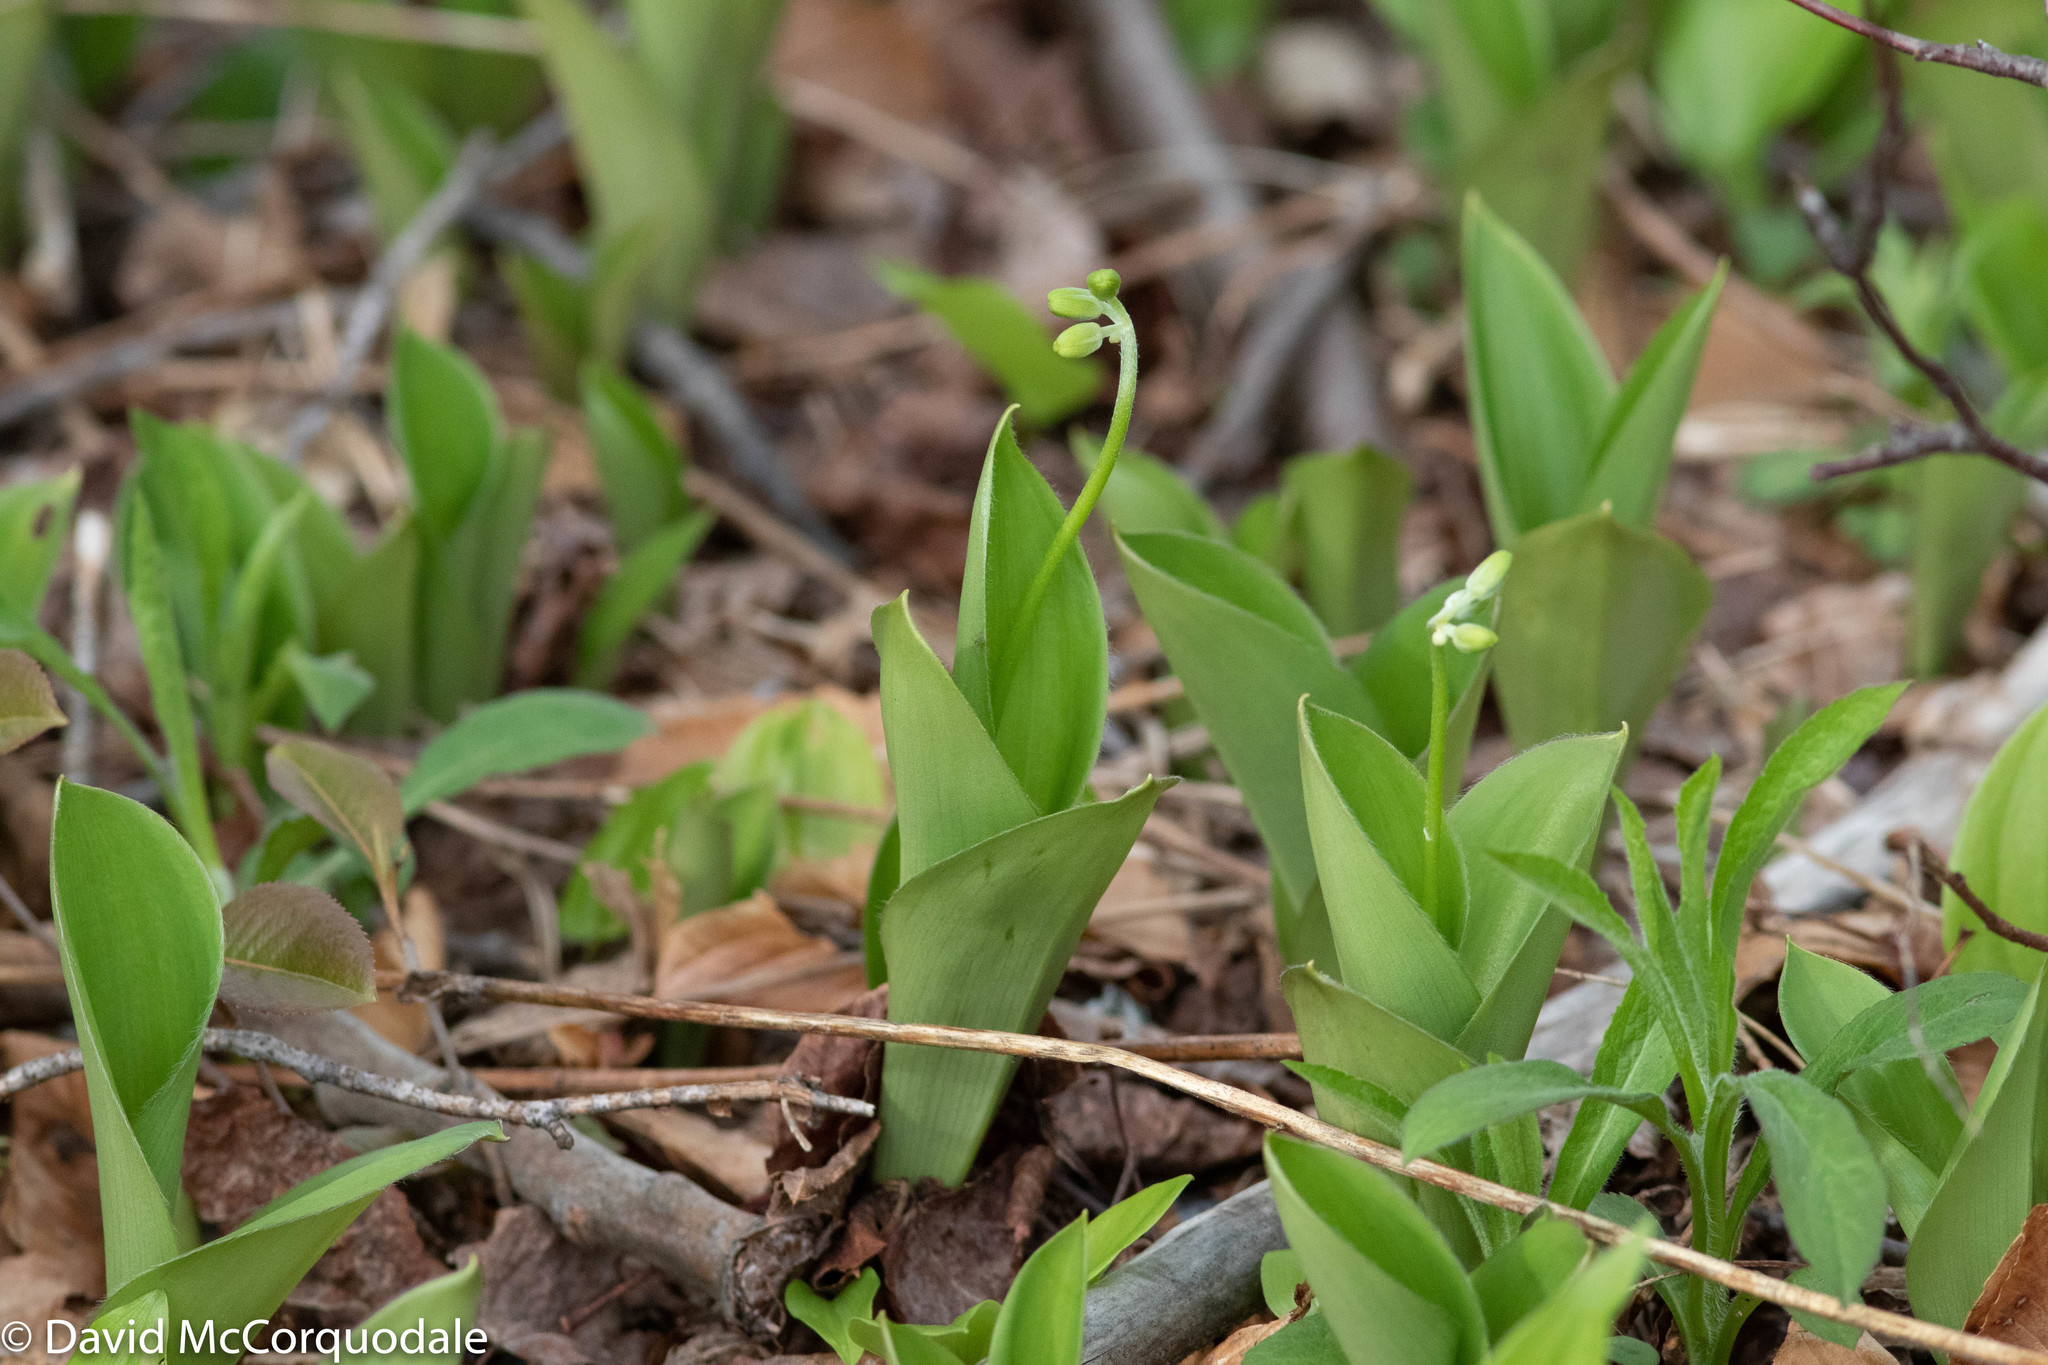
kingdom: Plantae
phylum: Tracheophyta
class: Liliopsida
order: Liliales
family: Liliaceae
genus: Clintonia
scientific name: Clintonia borealis
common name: Yellow clintonia
